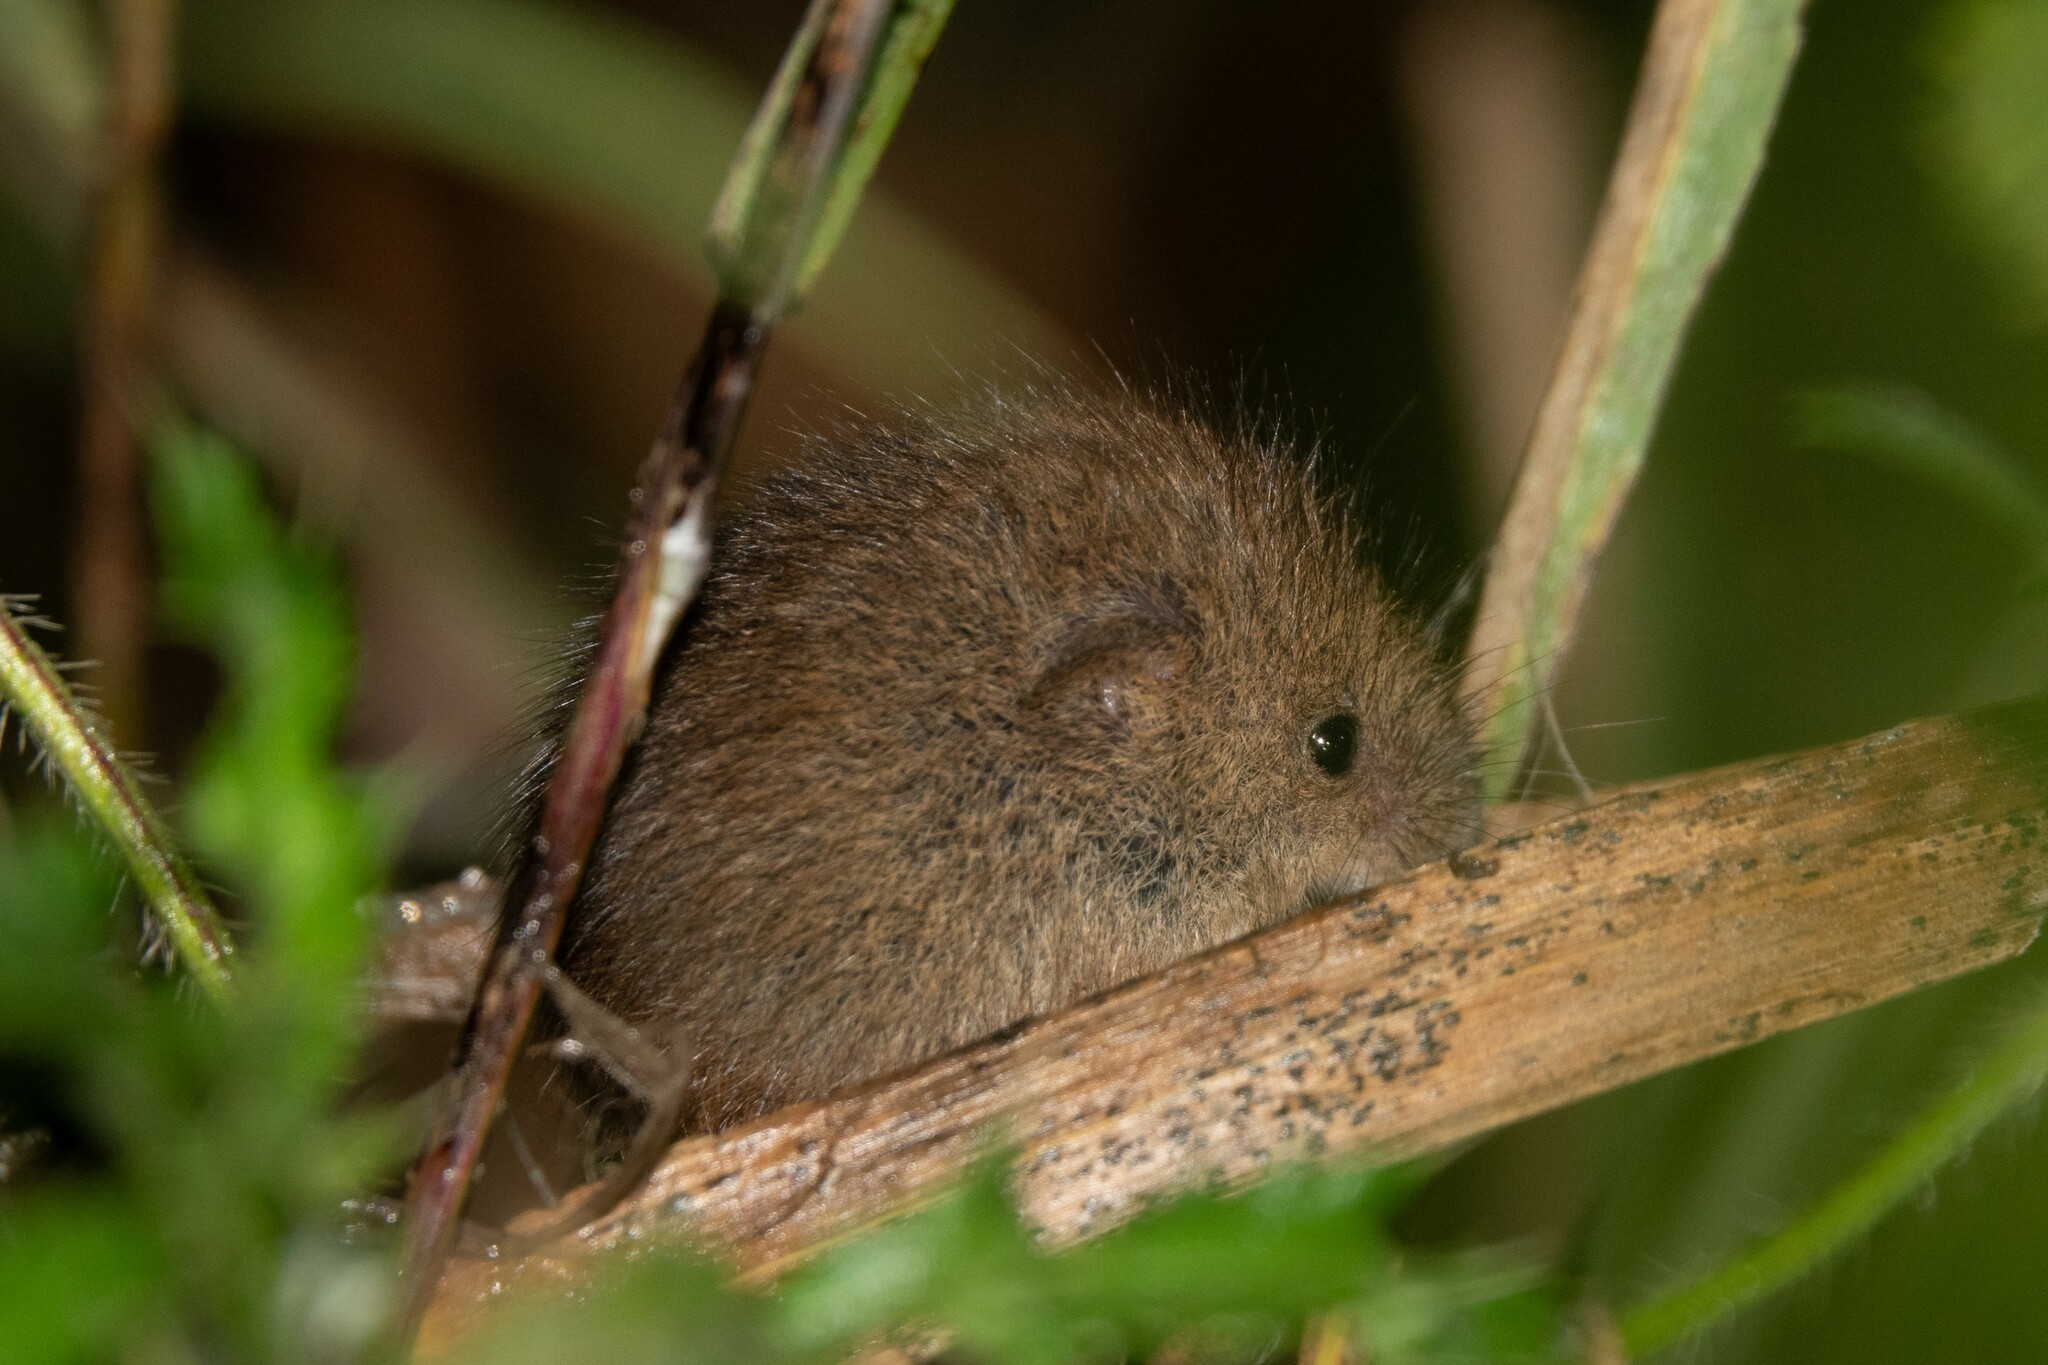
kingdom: Animalia
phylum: Chordata
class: Mammalia
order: Rodentia
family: Muridae
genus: Micromys
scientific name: Micromys minutus
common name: Harvest mouse
